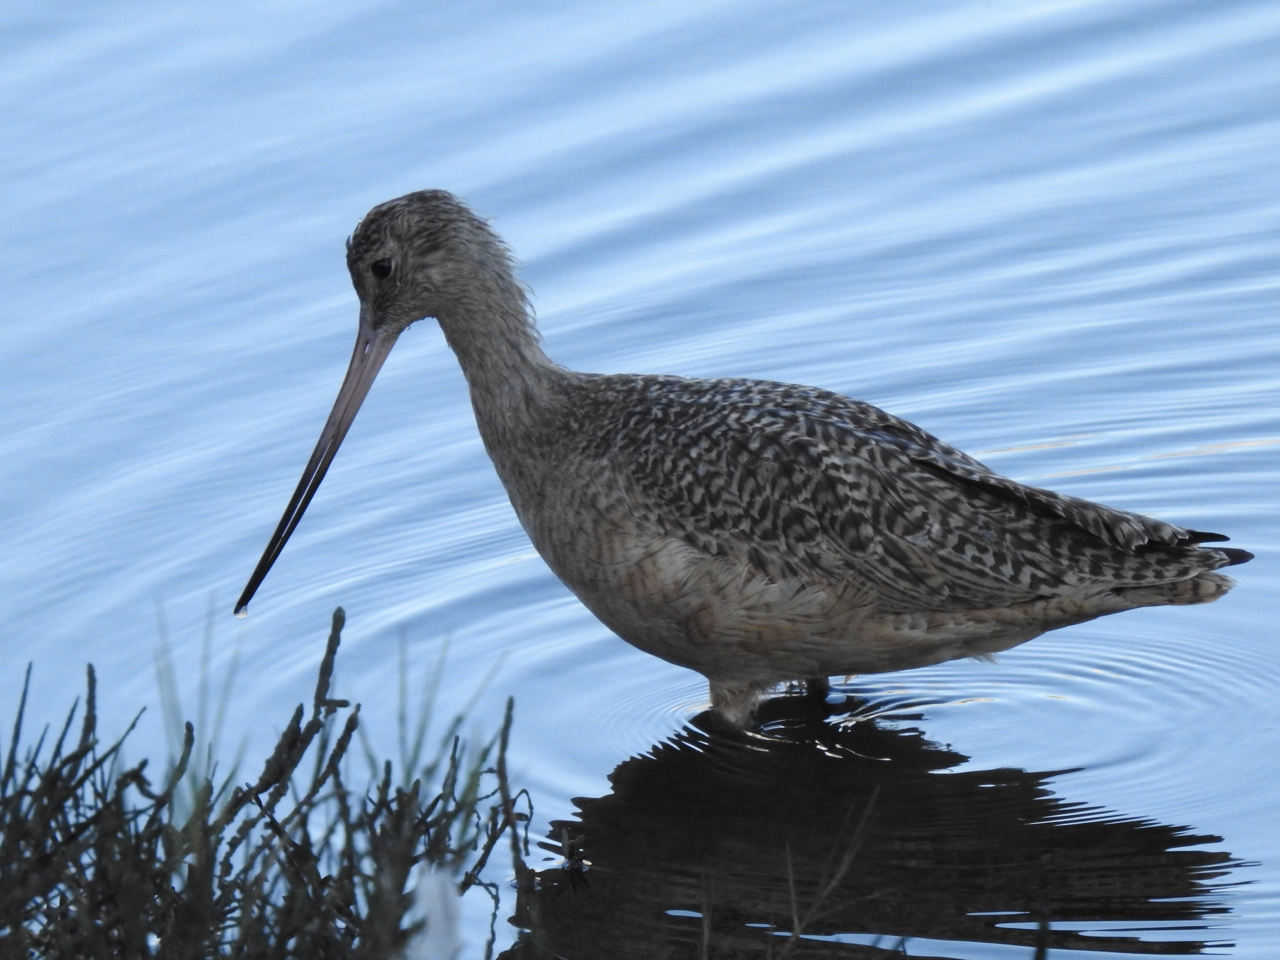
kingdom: Animalia
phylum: Chordata
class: Aves
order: Charadriiformes
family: Scolopacidae
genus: Limosa
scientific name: Limosa fedoa
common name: Marbled godwit
